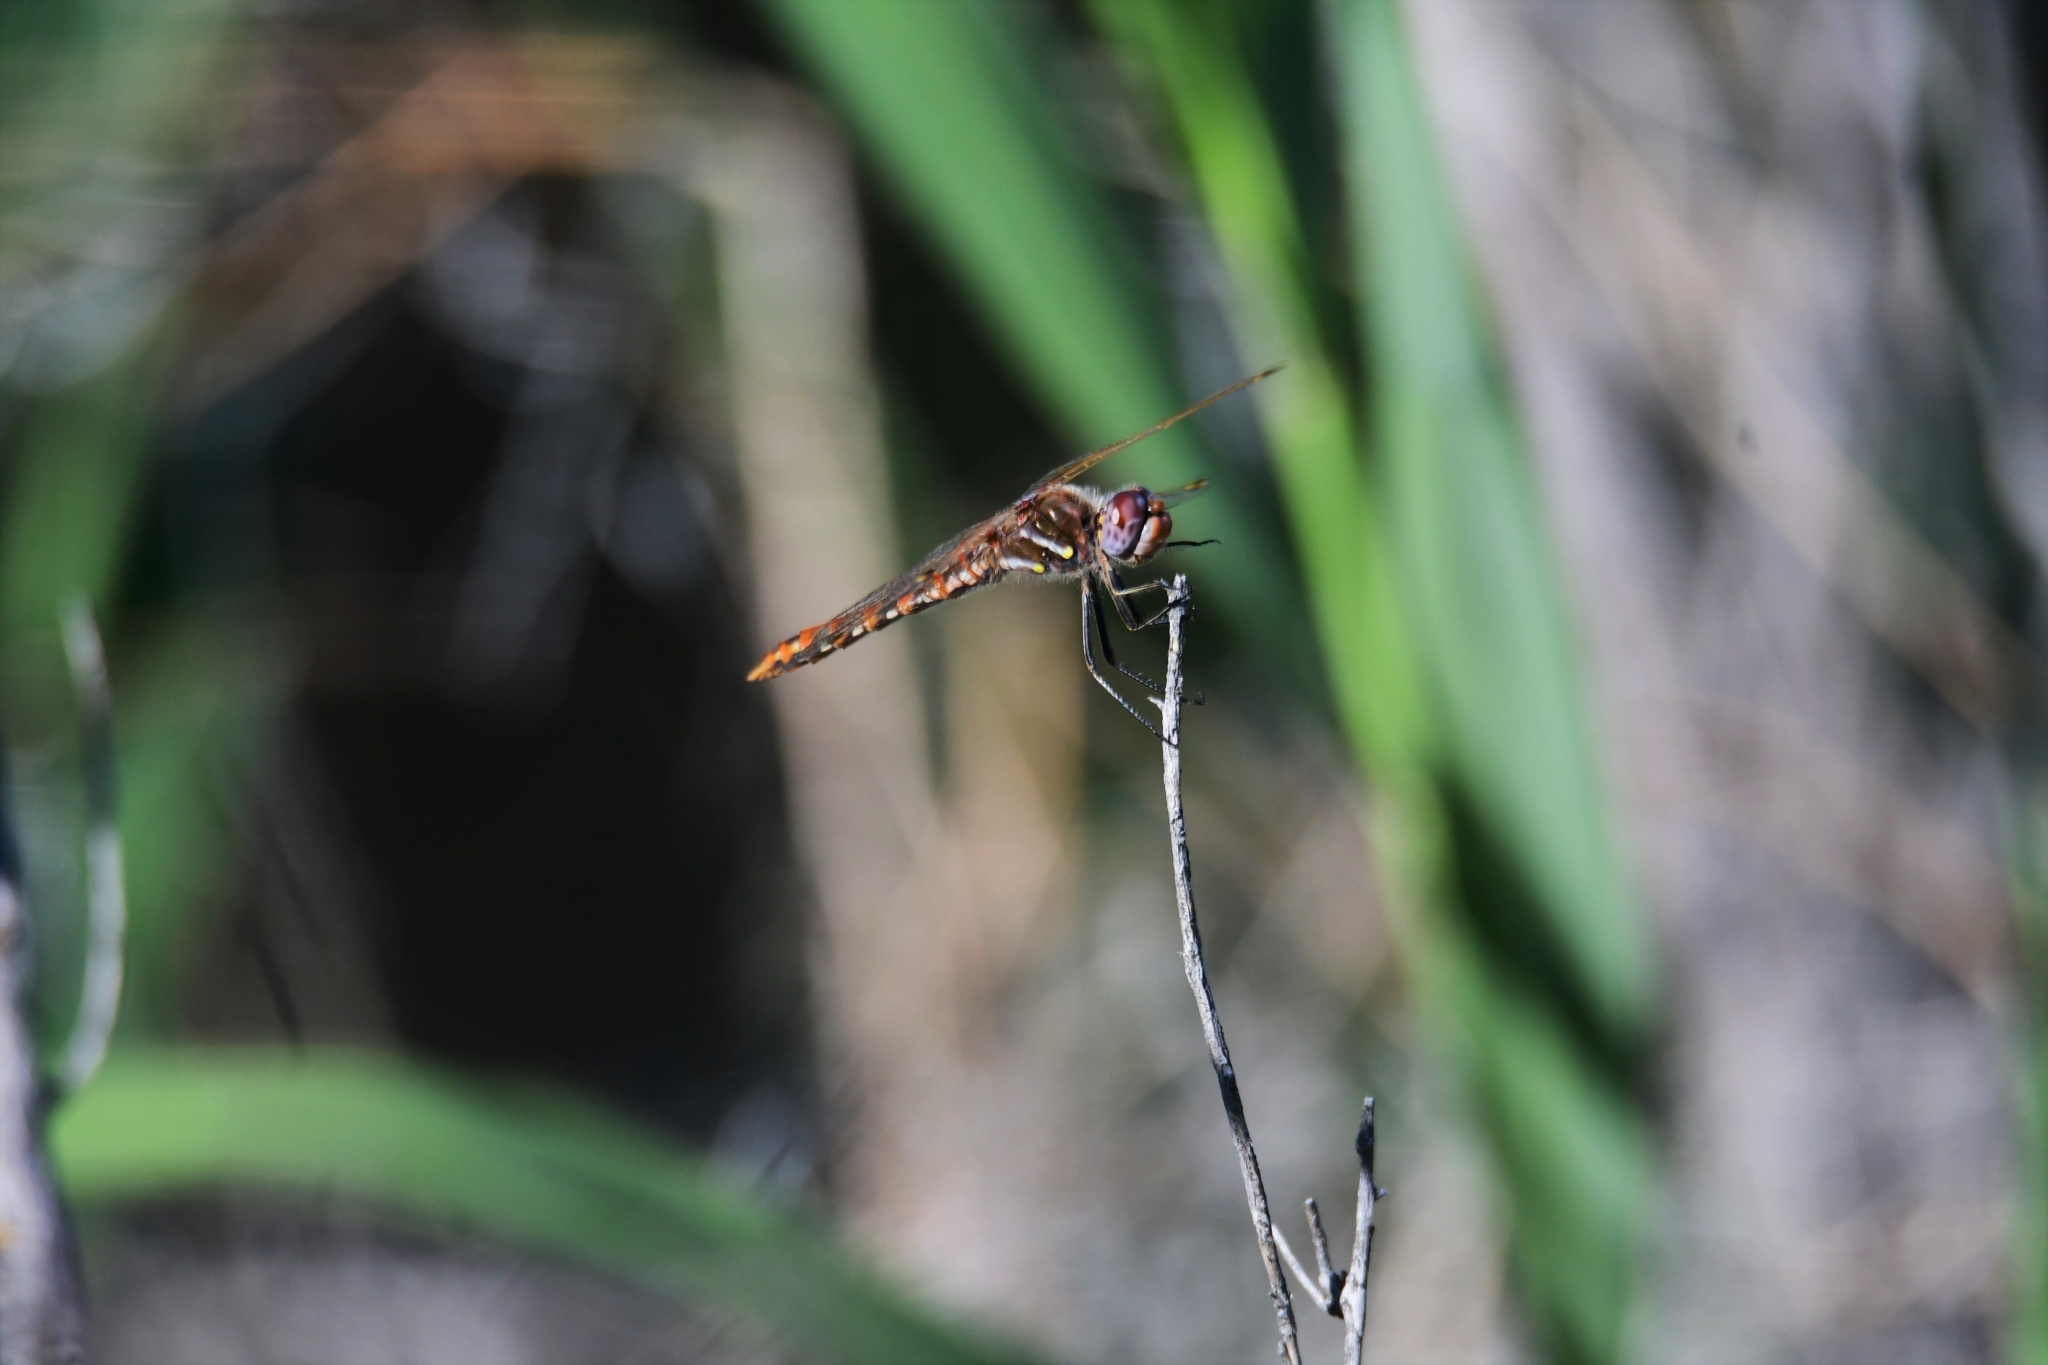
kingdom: Animalia
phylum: Arthropoda
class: Insecta
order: Odonata
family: Libellulidae
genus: Sympetrum
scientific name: Sympetrum corruptum
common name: Variegated meadowhawk
